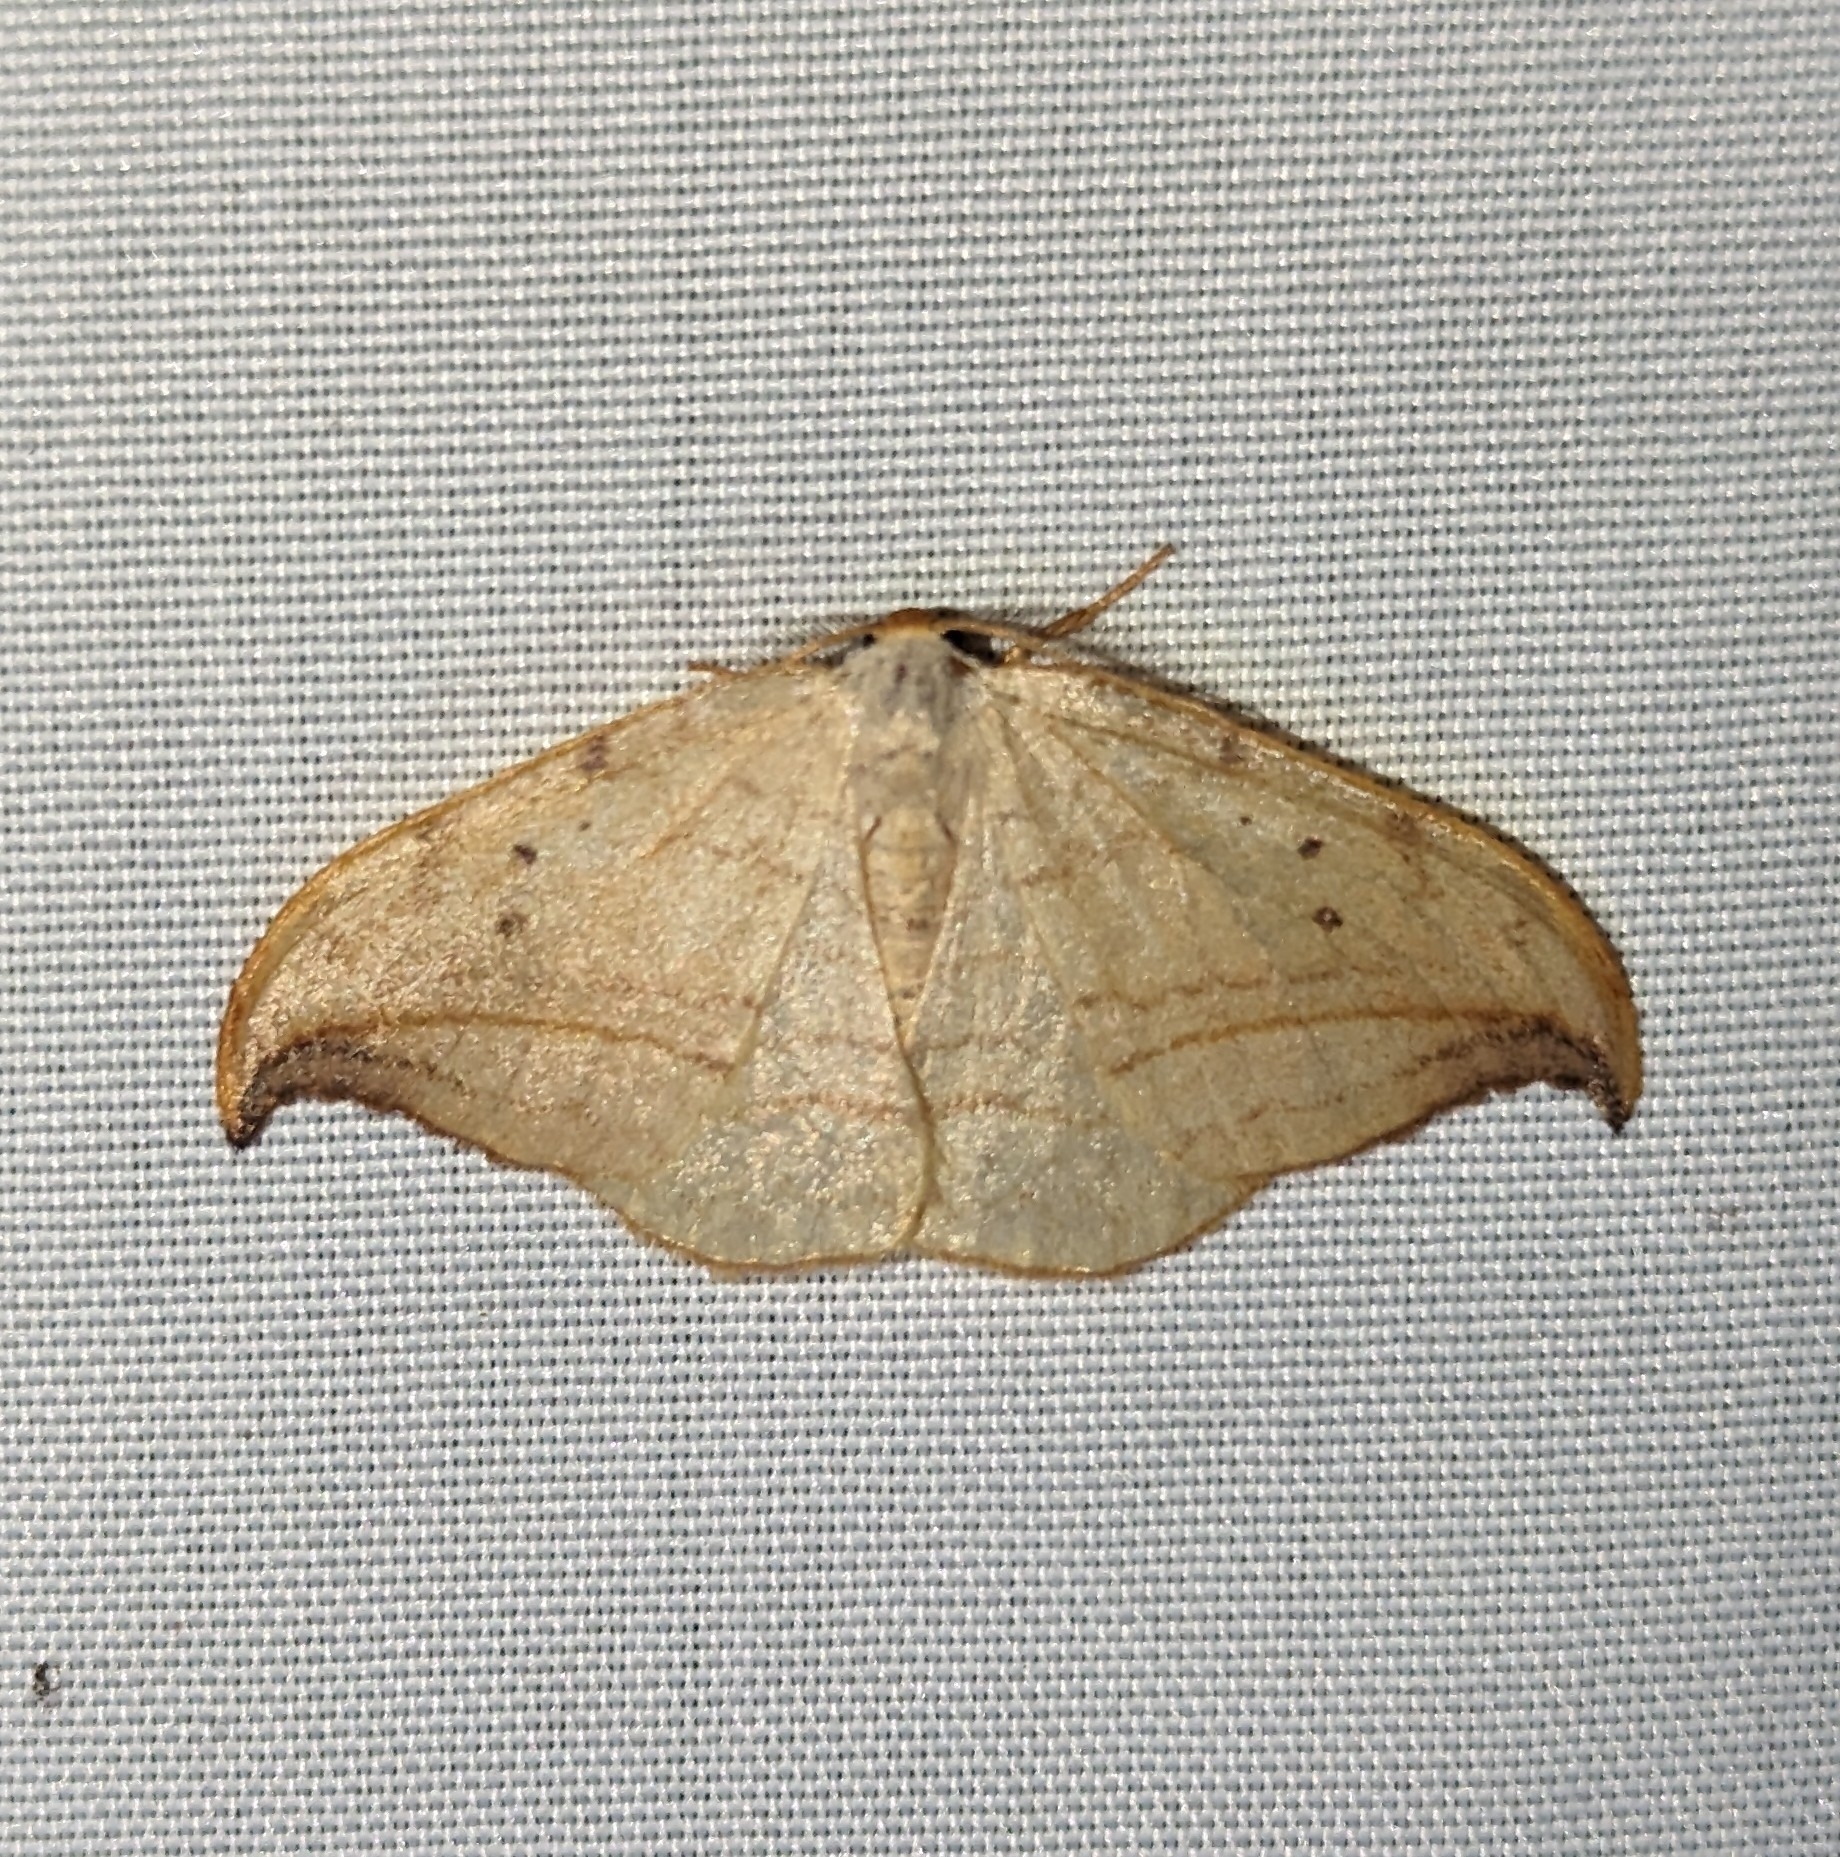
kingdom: Animalia
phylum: Arthropoda
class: Insecta
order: Lepidoptera
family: Drepanidae
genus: Drepana
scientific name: Drepana arcuata
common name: Arched hooktip moth
